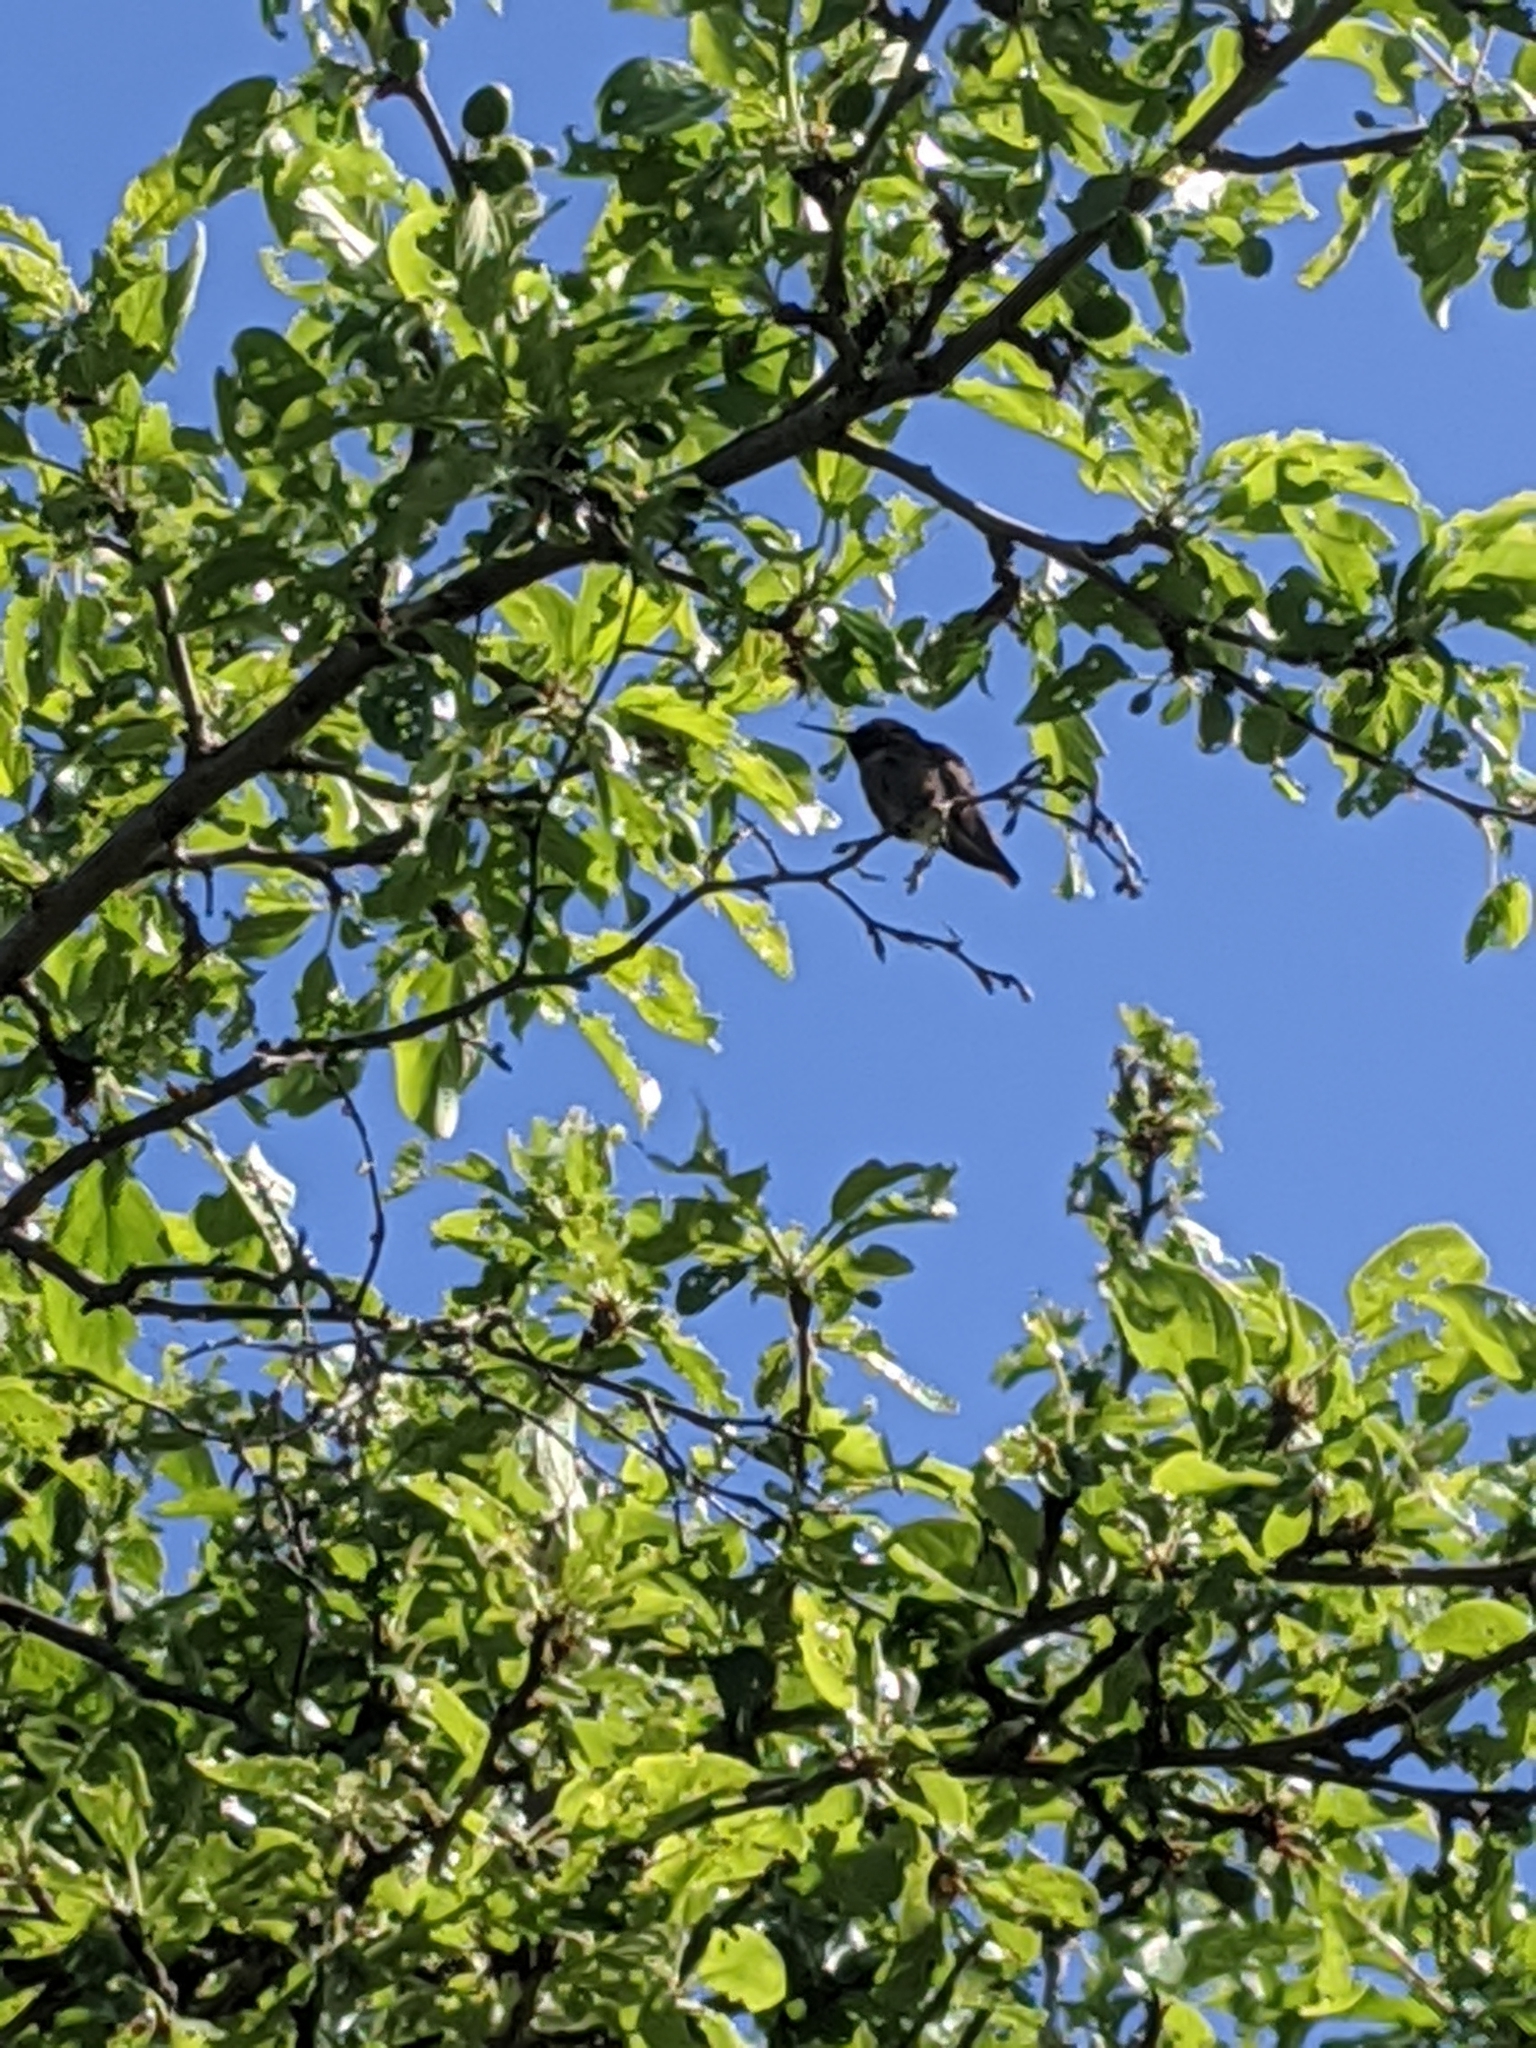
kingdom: Animalia
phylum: Chordata
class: Aves
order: Apodiformes
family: Trochilidae
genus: Calypte
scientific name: Calypte anna
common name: Anna's hummingbird
